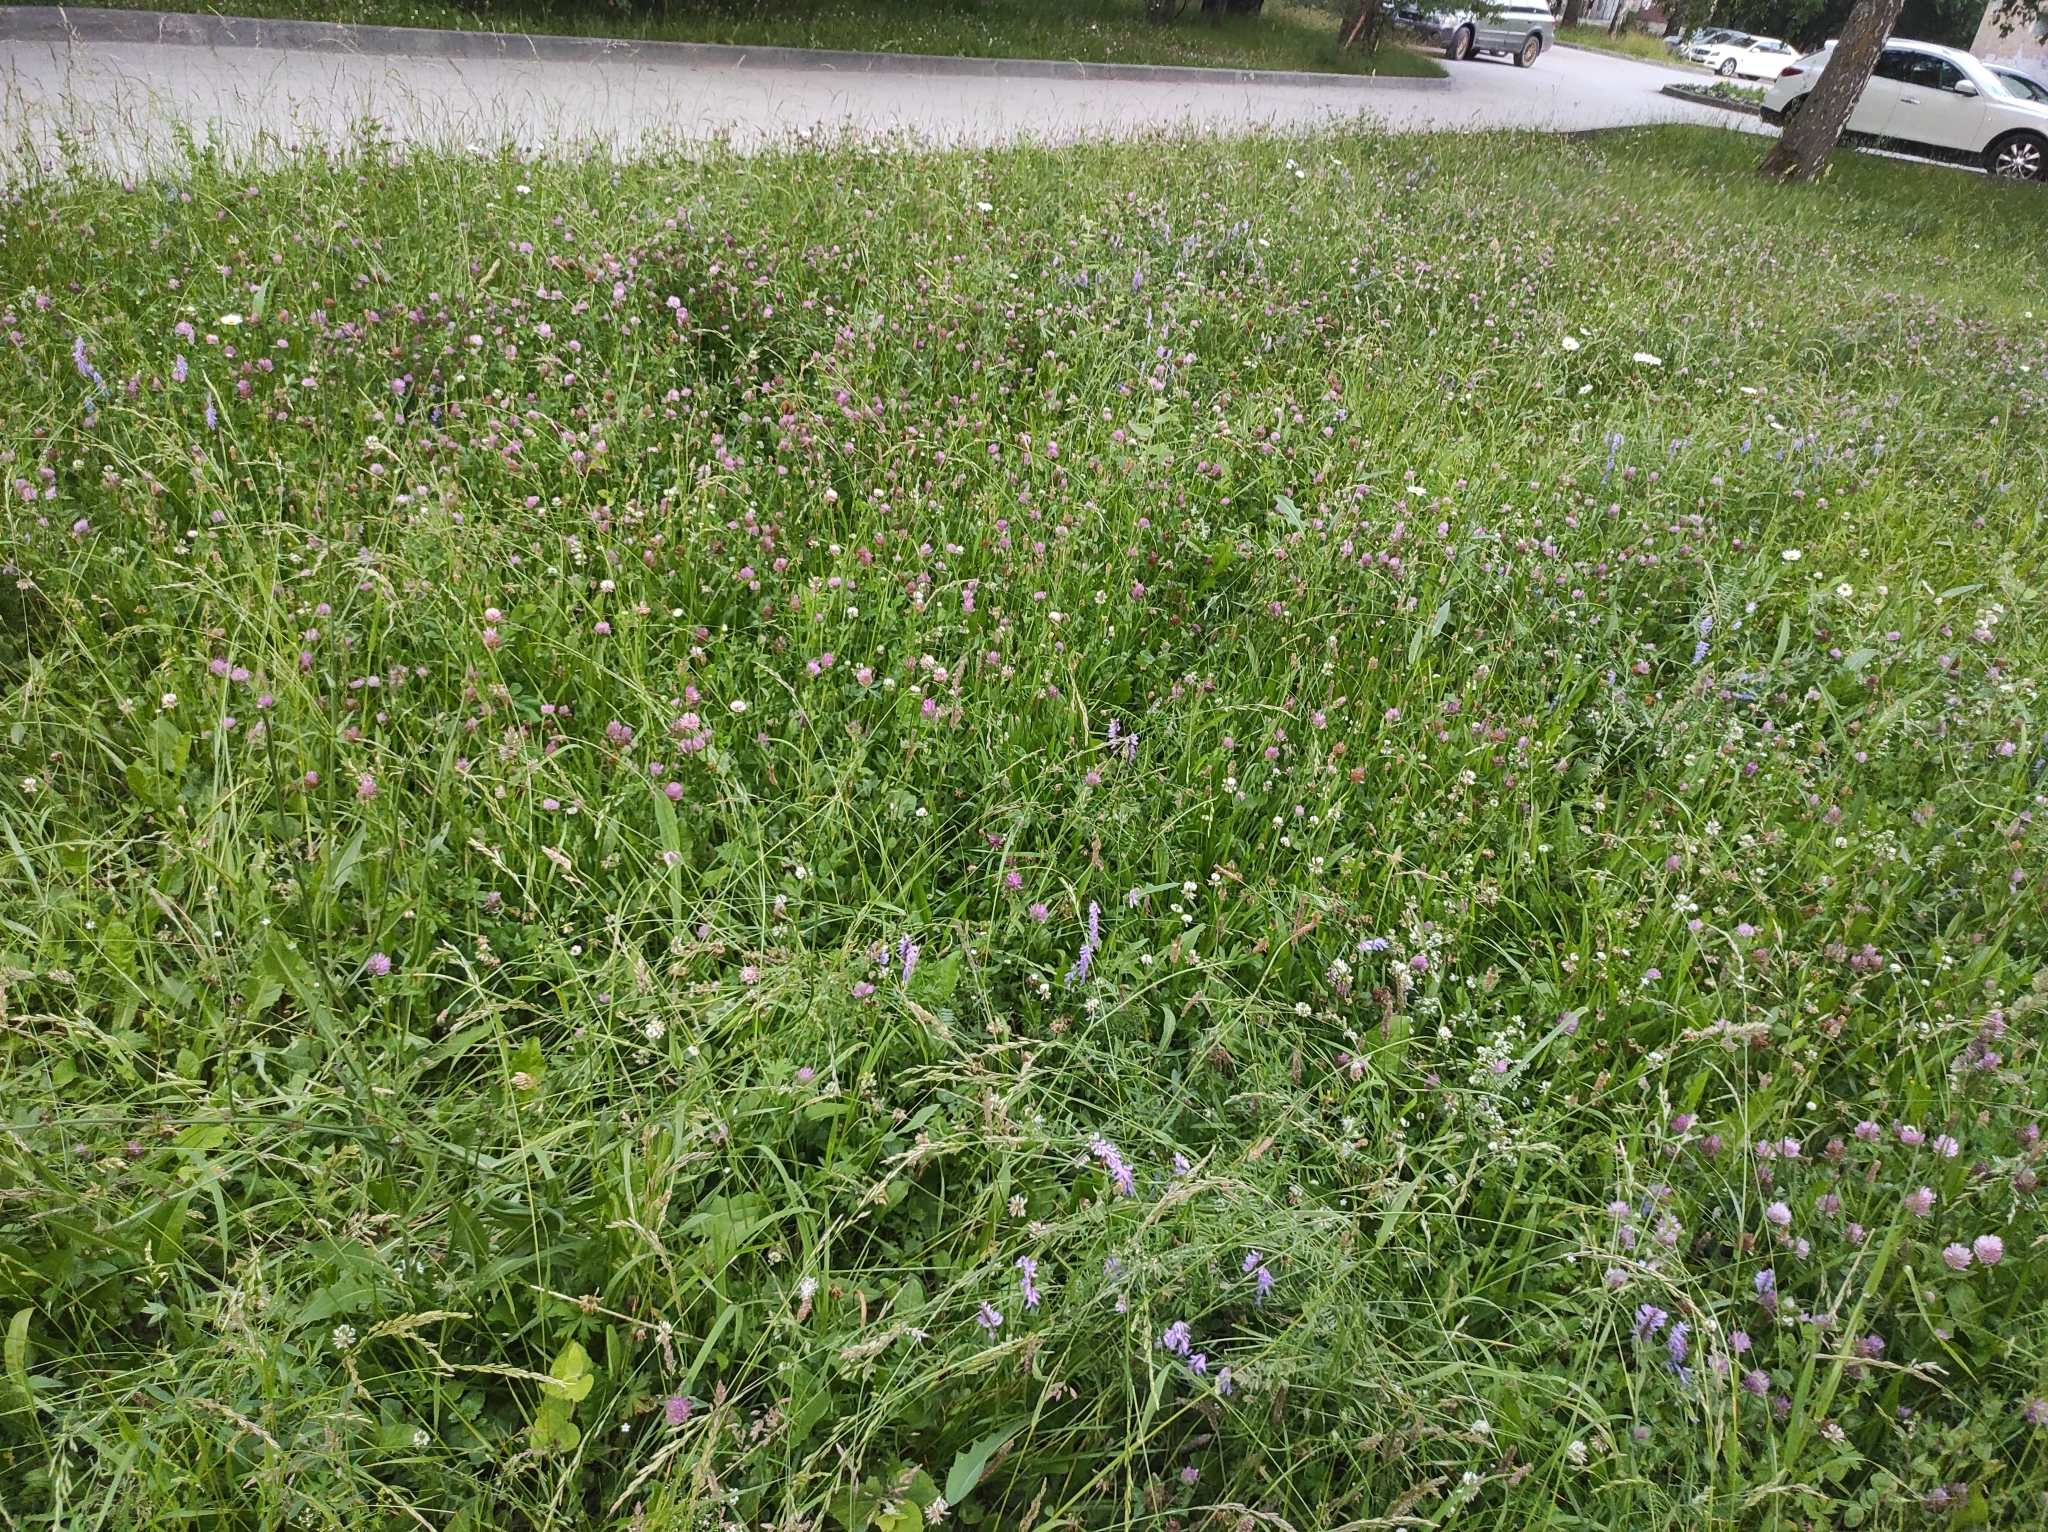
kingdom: Plantae
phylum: Tracheophyta
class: Magnoliopsida
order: Fabales
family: Fabaceae
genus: Trifolium
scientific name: Trifolium pratense
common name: Red clover
